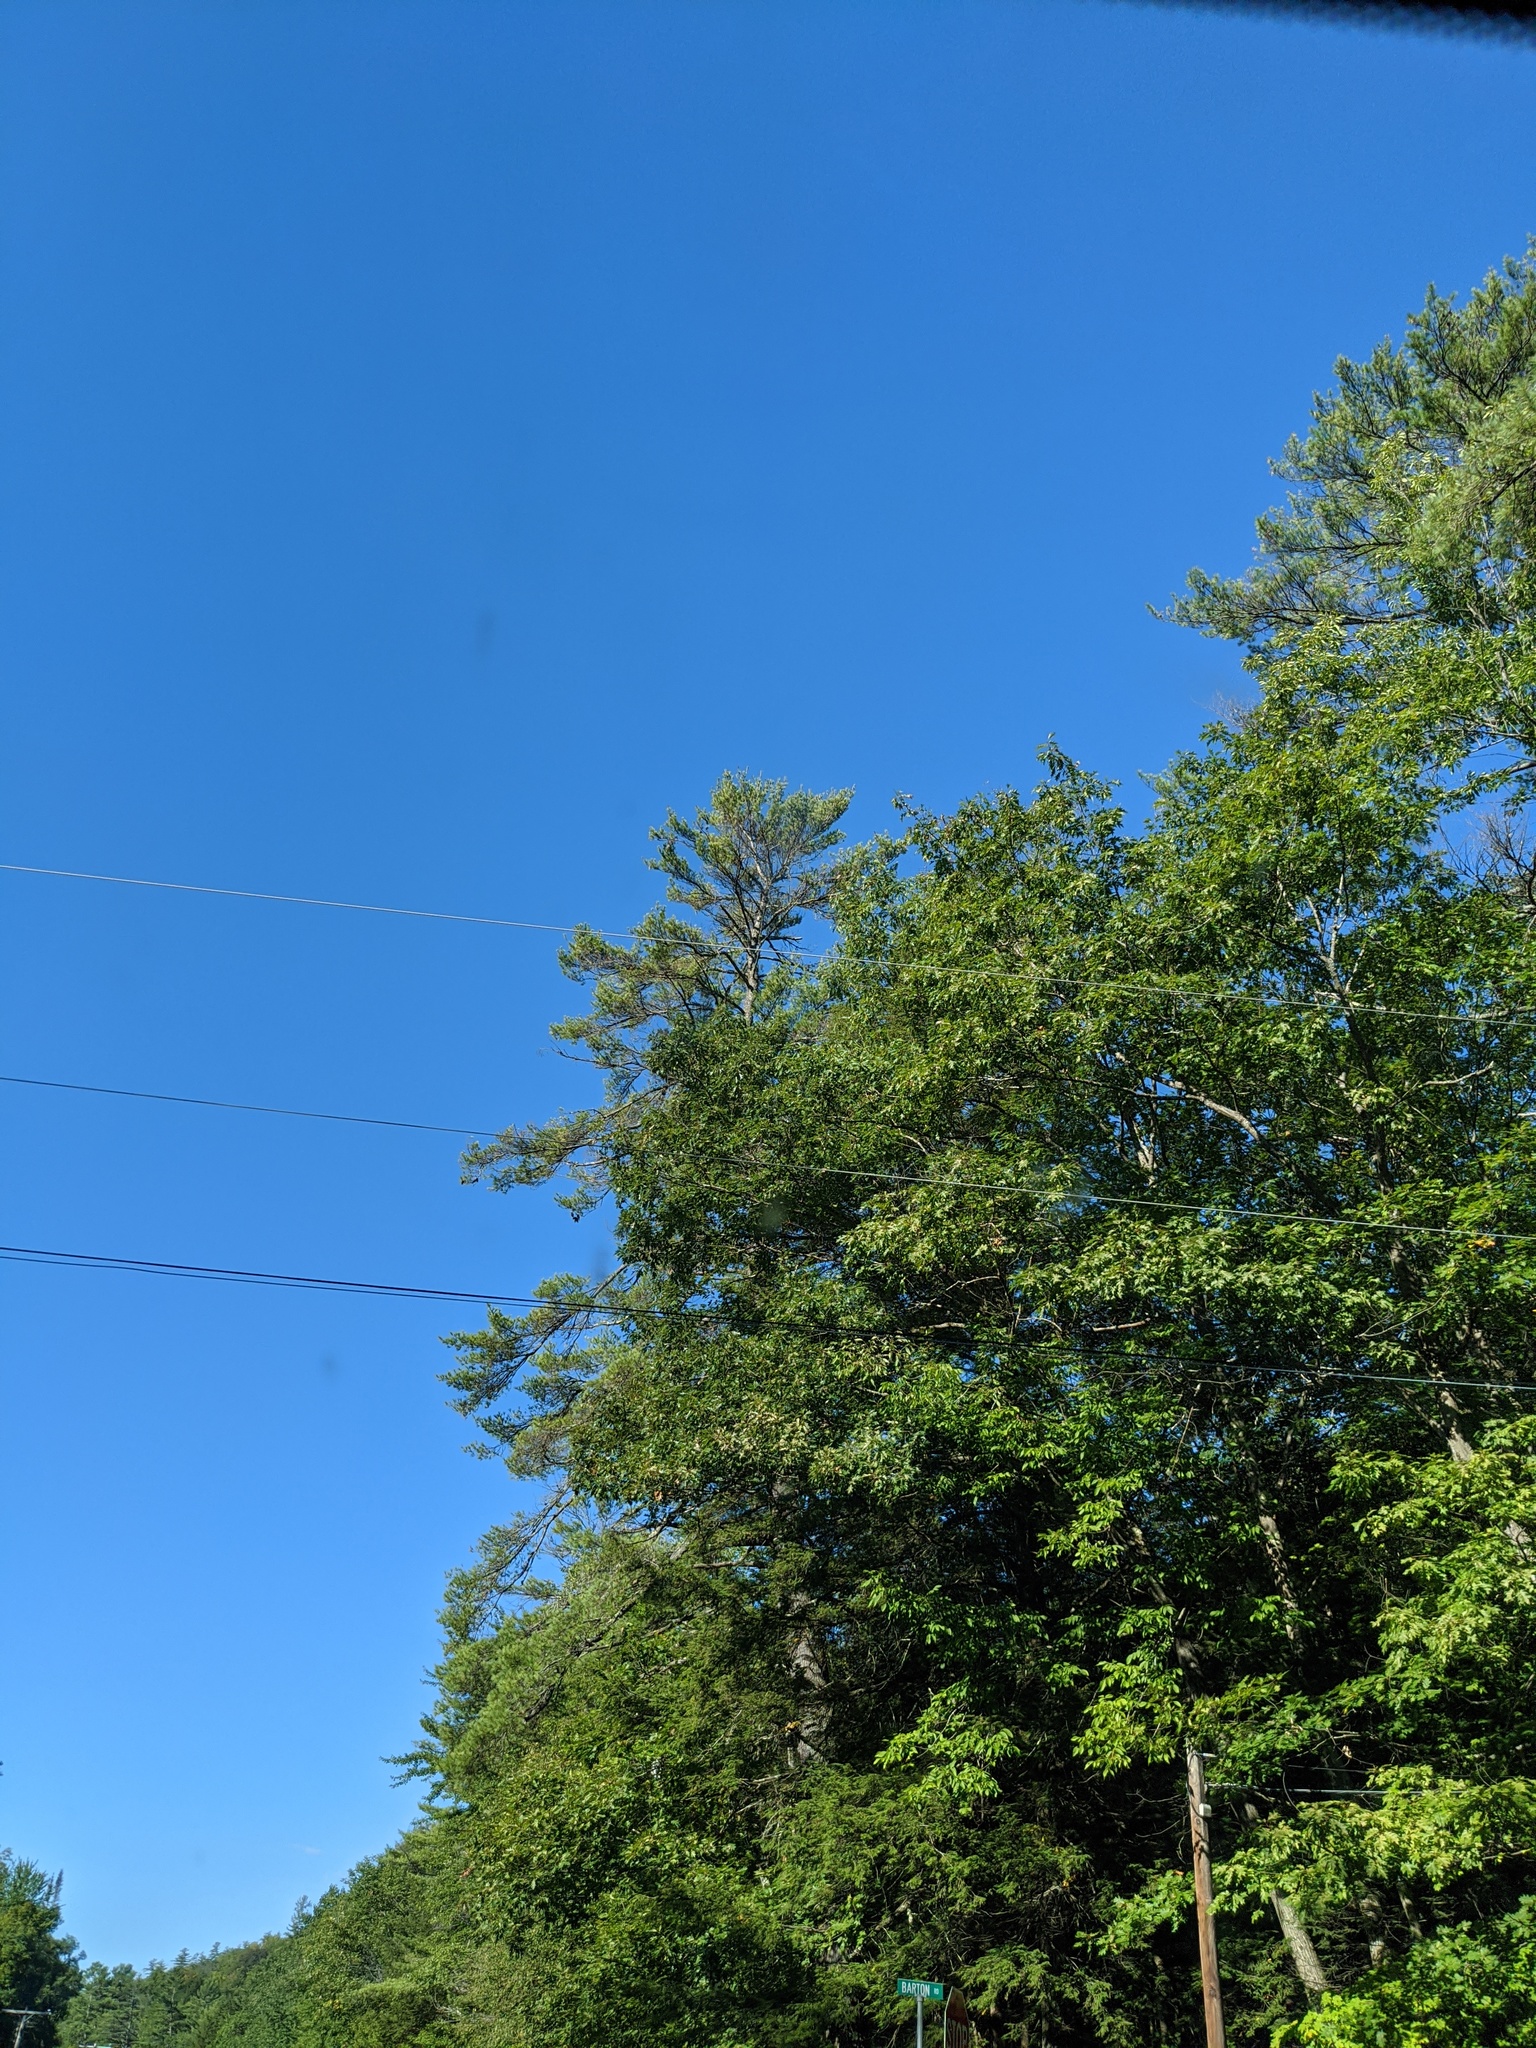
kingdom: Plantae
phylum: Tracheophyta
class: Pinopsida
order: Pinales
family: Pinaceae
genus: Pinus
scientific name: Pinus strobus
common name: Weymouth pine
